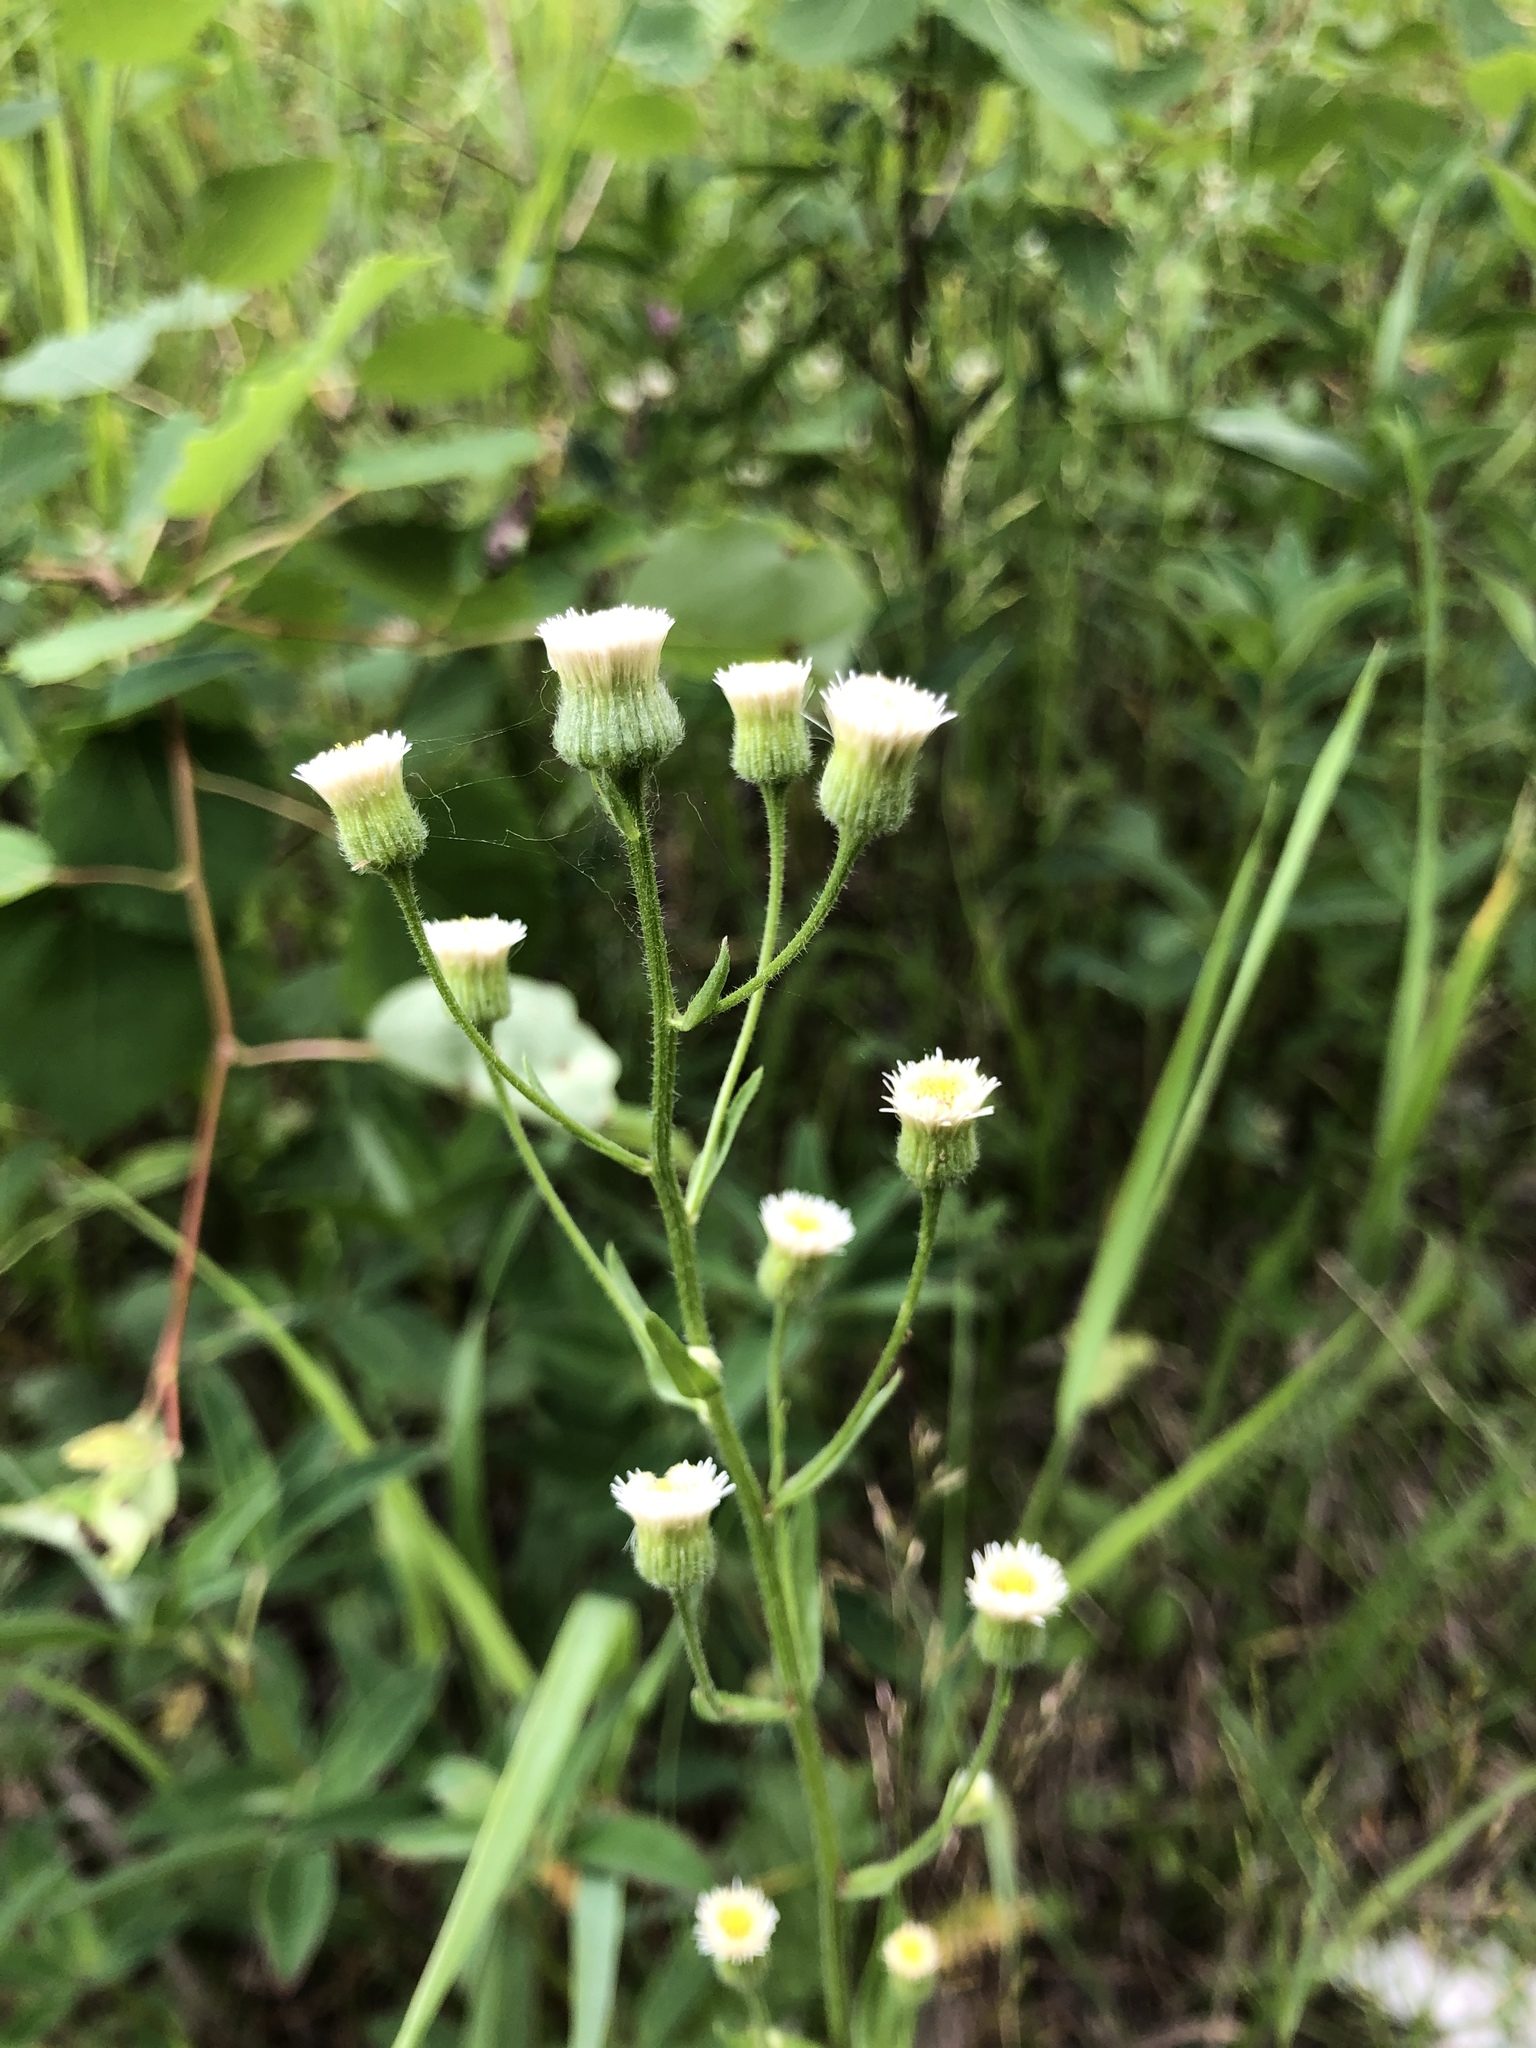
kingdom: Plantae
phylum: Tracheophyta
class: Magnoliopsida
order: Asterales
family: Asteraceae
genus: Erigeron
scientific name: Erigeron acris
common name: Blue fleabane
